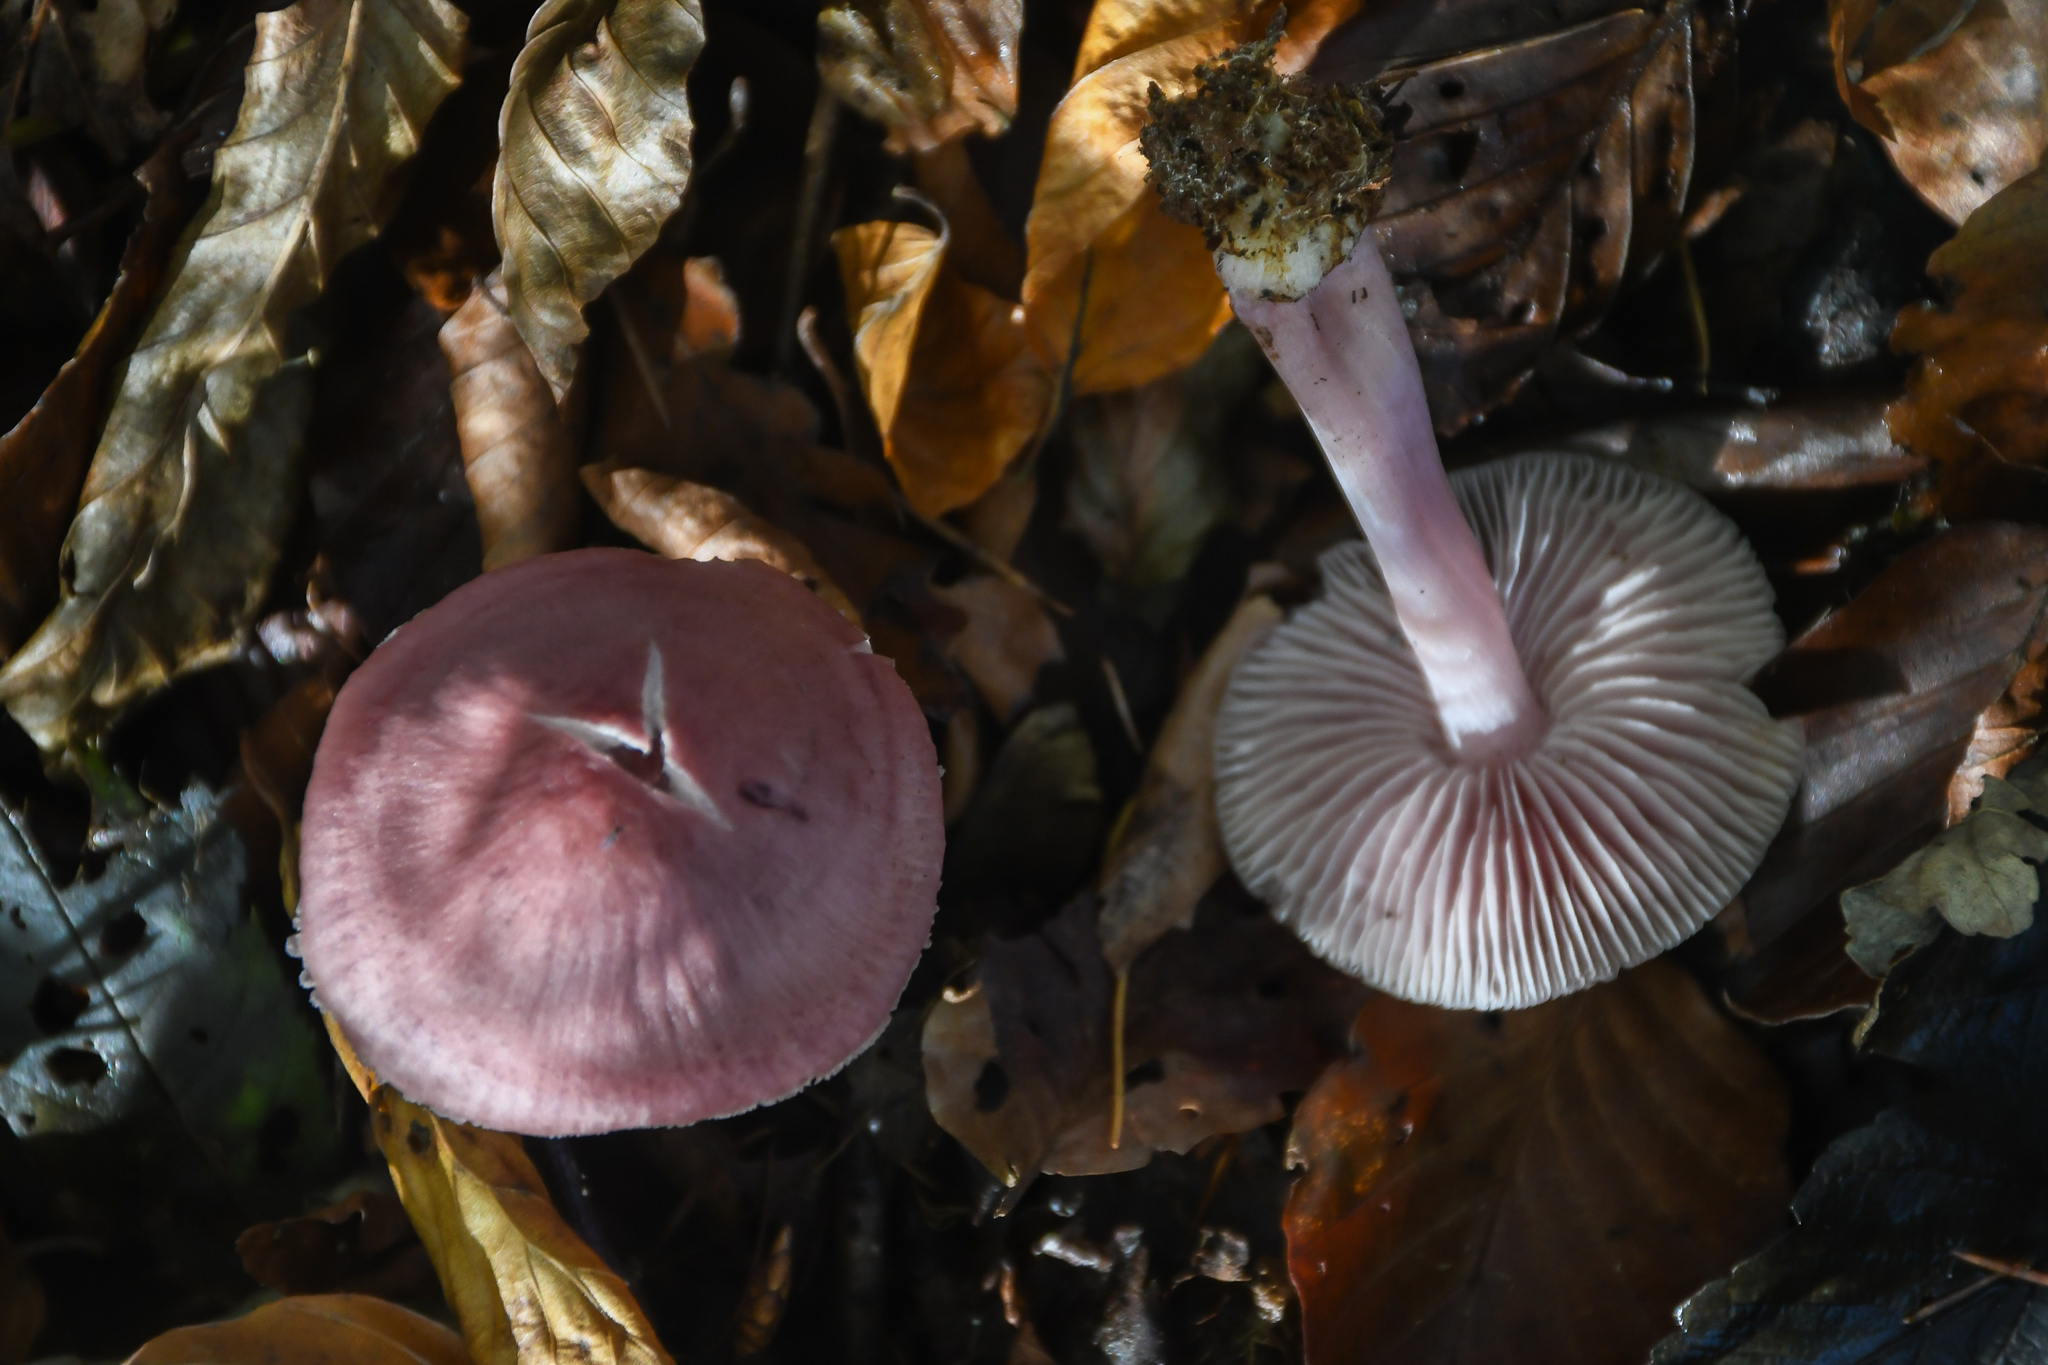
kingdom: Fungi
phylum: Basidiomycota
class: Agaricomycetes
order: Agaricales
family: Mycenaceae
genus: Mycena
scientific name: Mycena rosea
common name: Rosy bonnet
